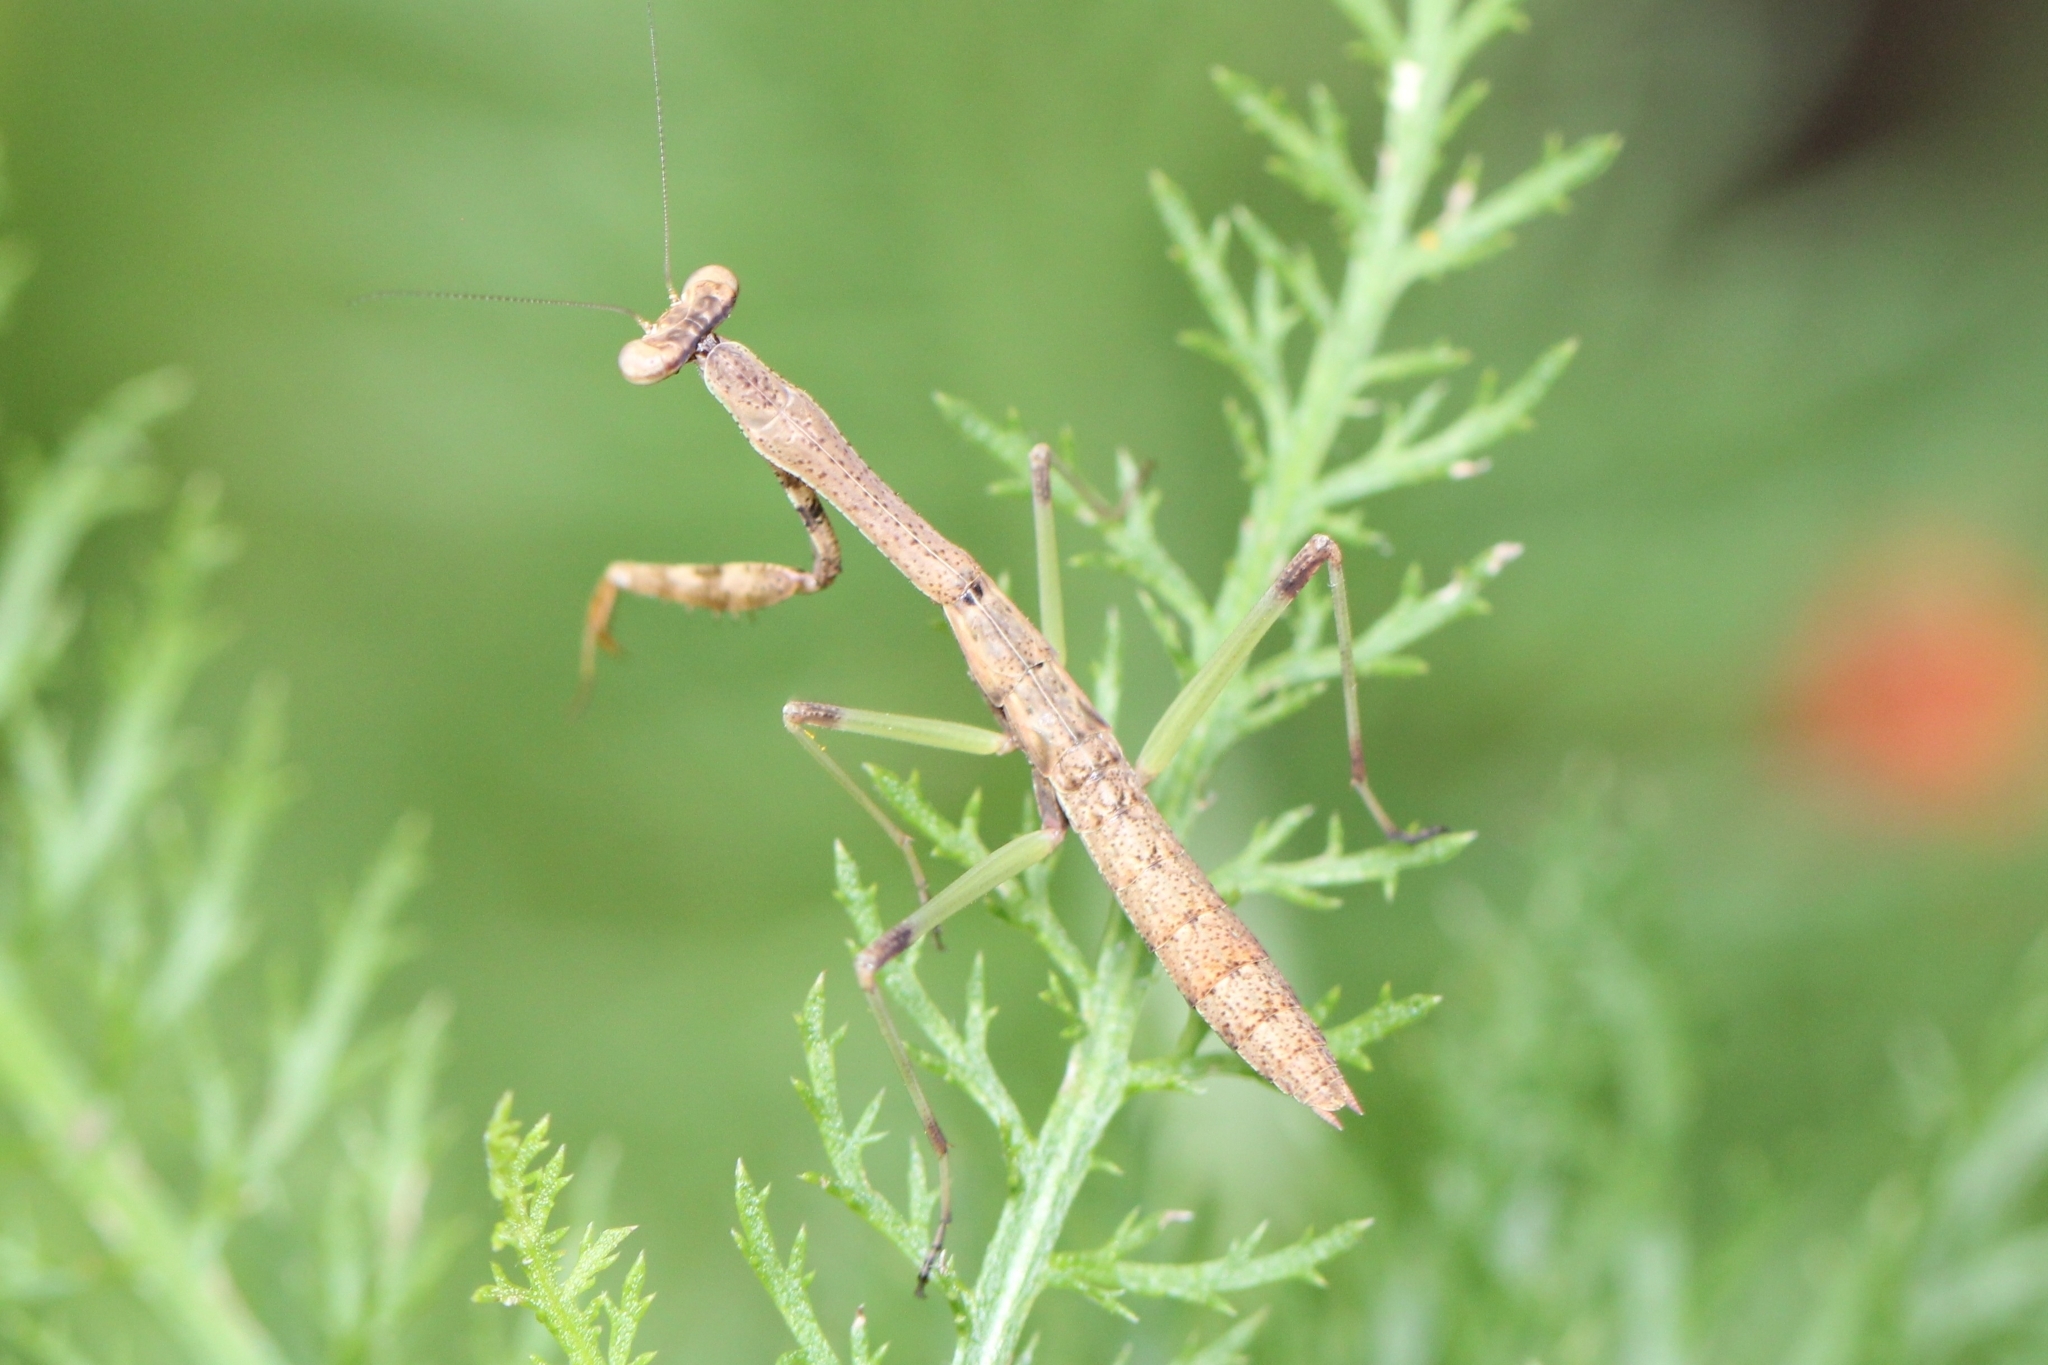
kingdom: Animalia
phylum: Arthropoda
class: Insecta
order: Mantodea
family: Mantidae
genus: Stagmomantis
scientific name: Stagmomantis carolina
